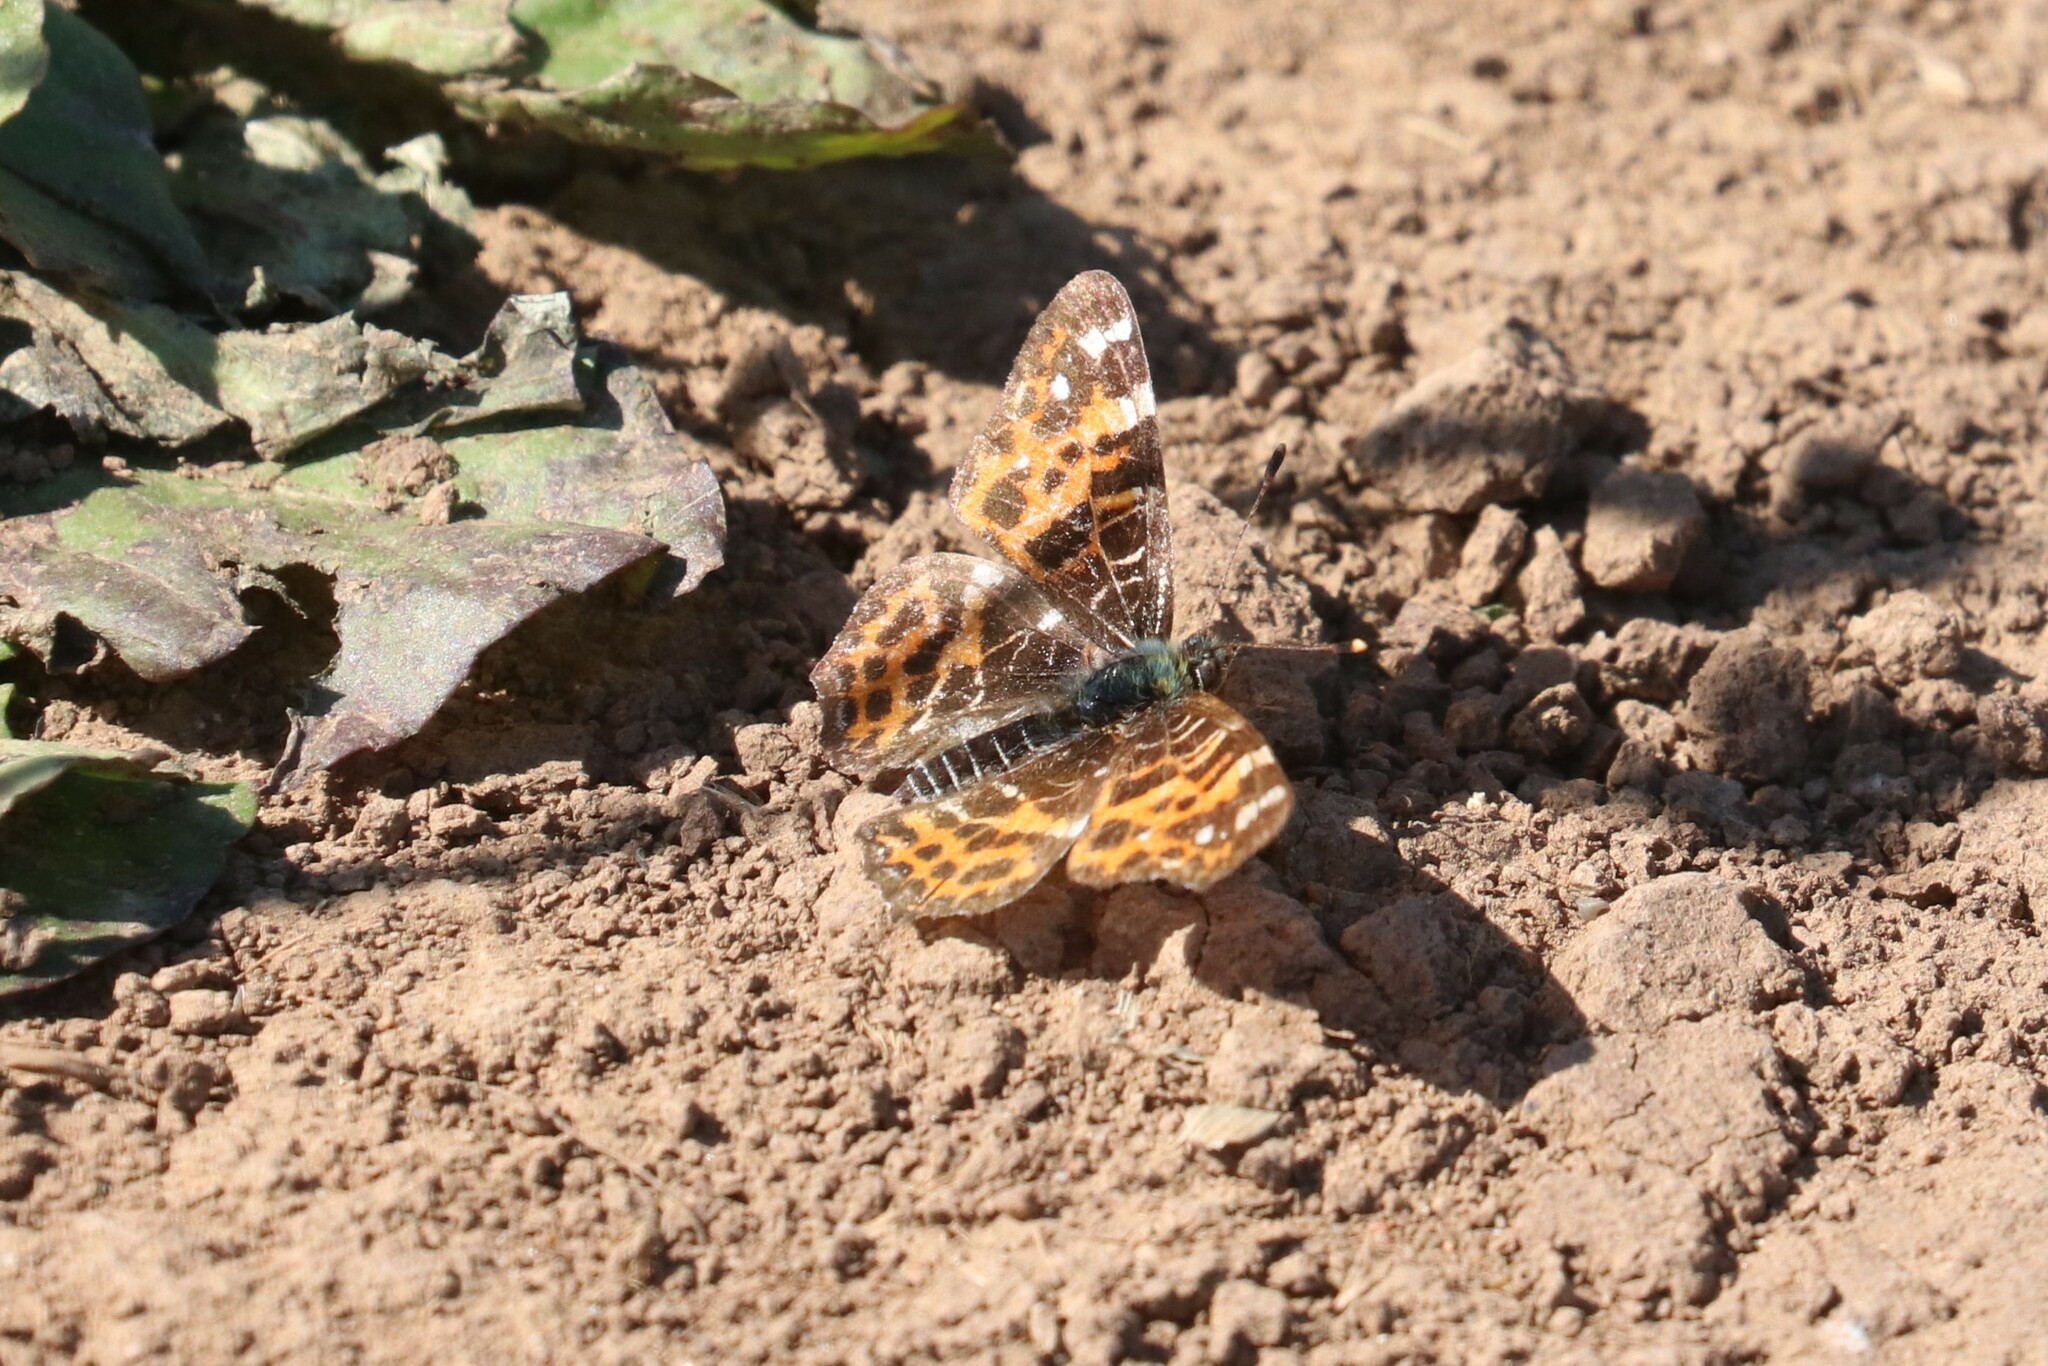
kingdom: Animalia
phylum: Arthropoda
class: Insecta
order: Lepidoptera
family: Nymphalidae
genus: Araschnia
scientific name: Araschnia levana
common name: Map butterfly
